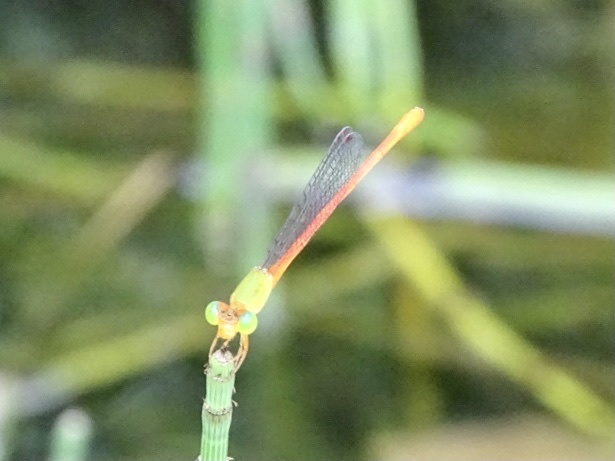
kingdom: Animalia
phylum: Arthropoda
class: Insecta
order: Odonata
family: Coenagrionidae
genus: Ceriagrion
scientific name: Ceriagrion auranticum
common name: Orange-tailed sprite
